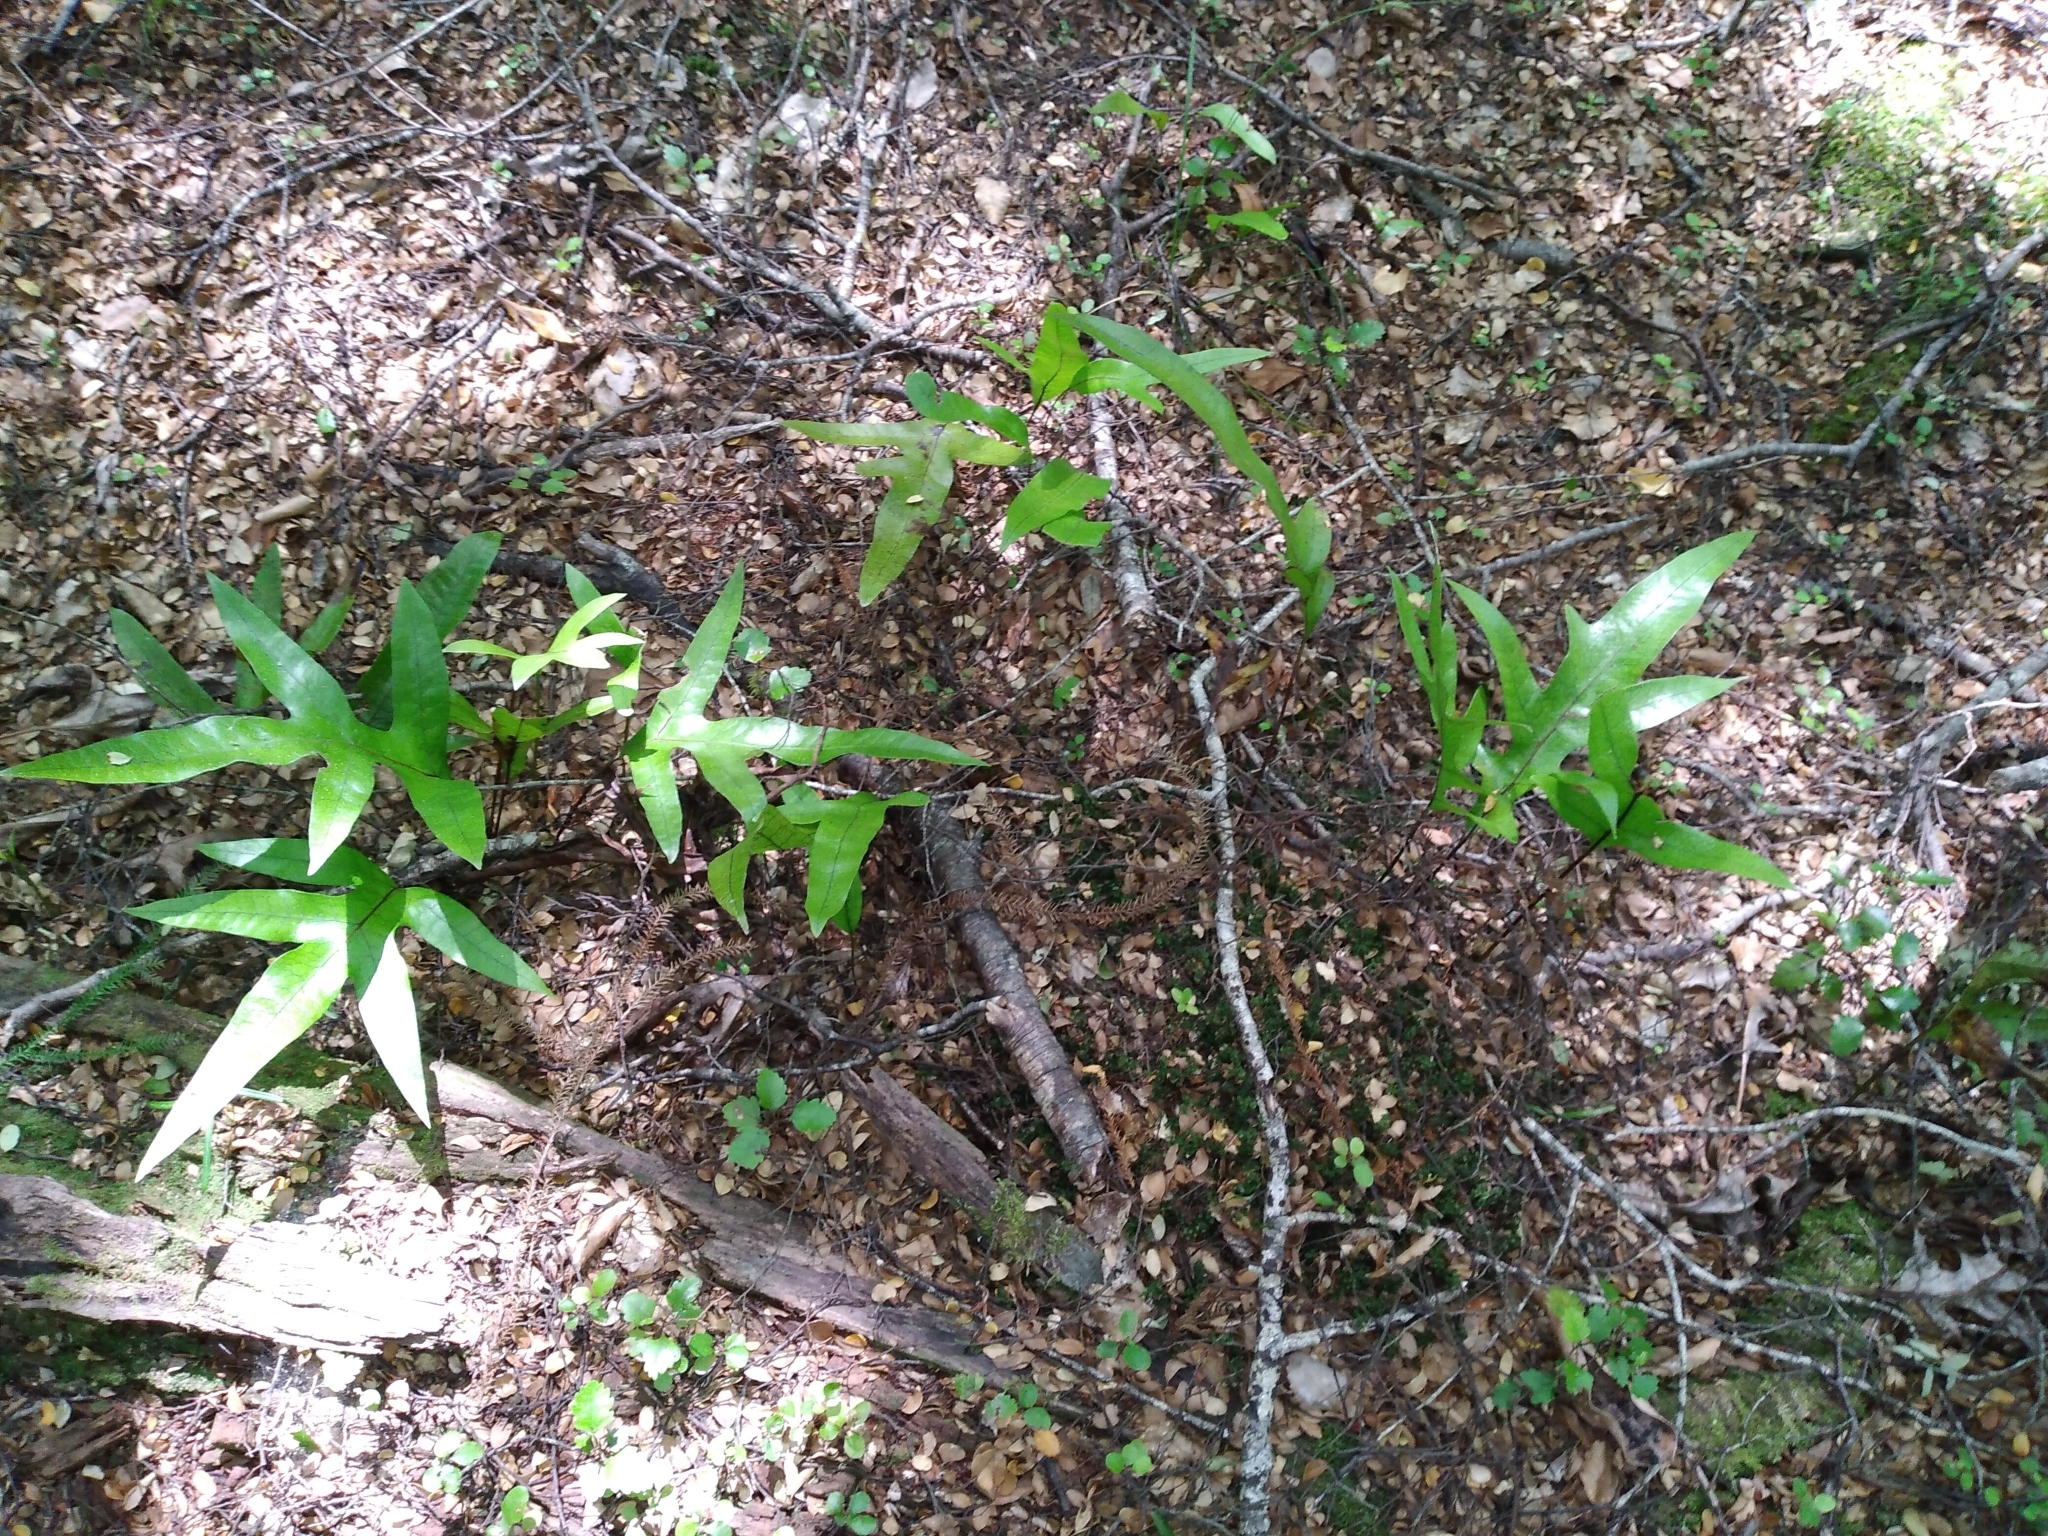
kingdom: Plantae
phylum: Tracheophyta
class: Polypodiopsida
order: Polypodiales
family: Polypodiaceae
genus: Lecanopteris
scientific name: Lecanopteris pustulata
